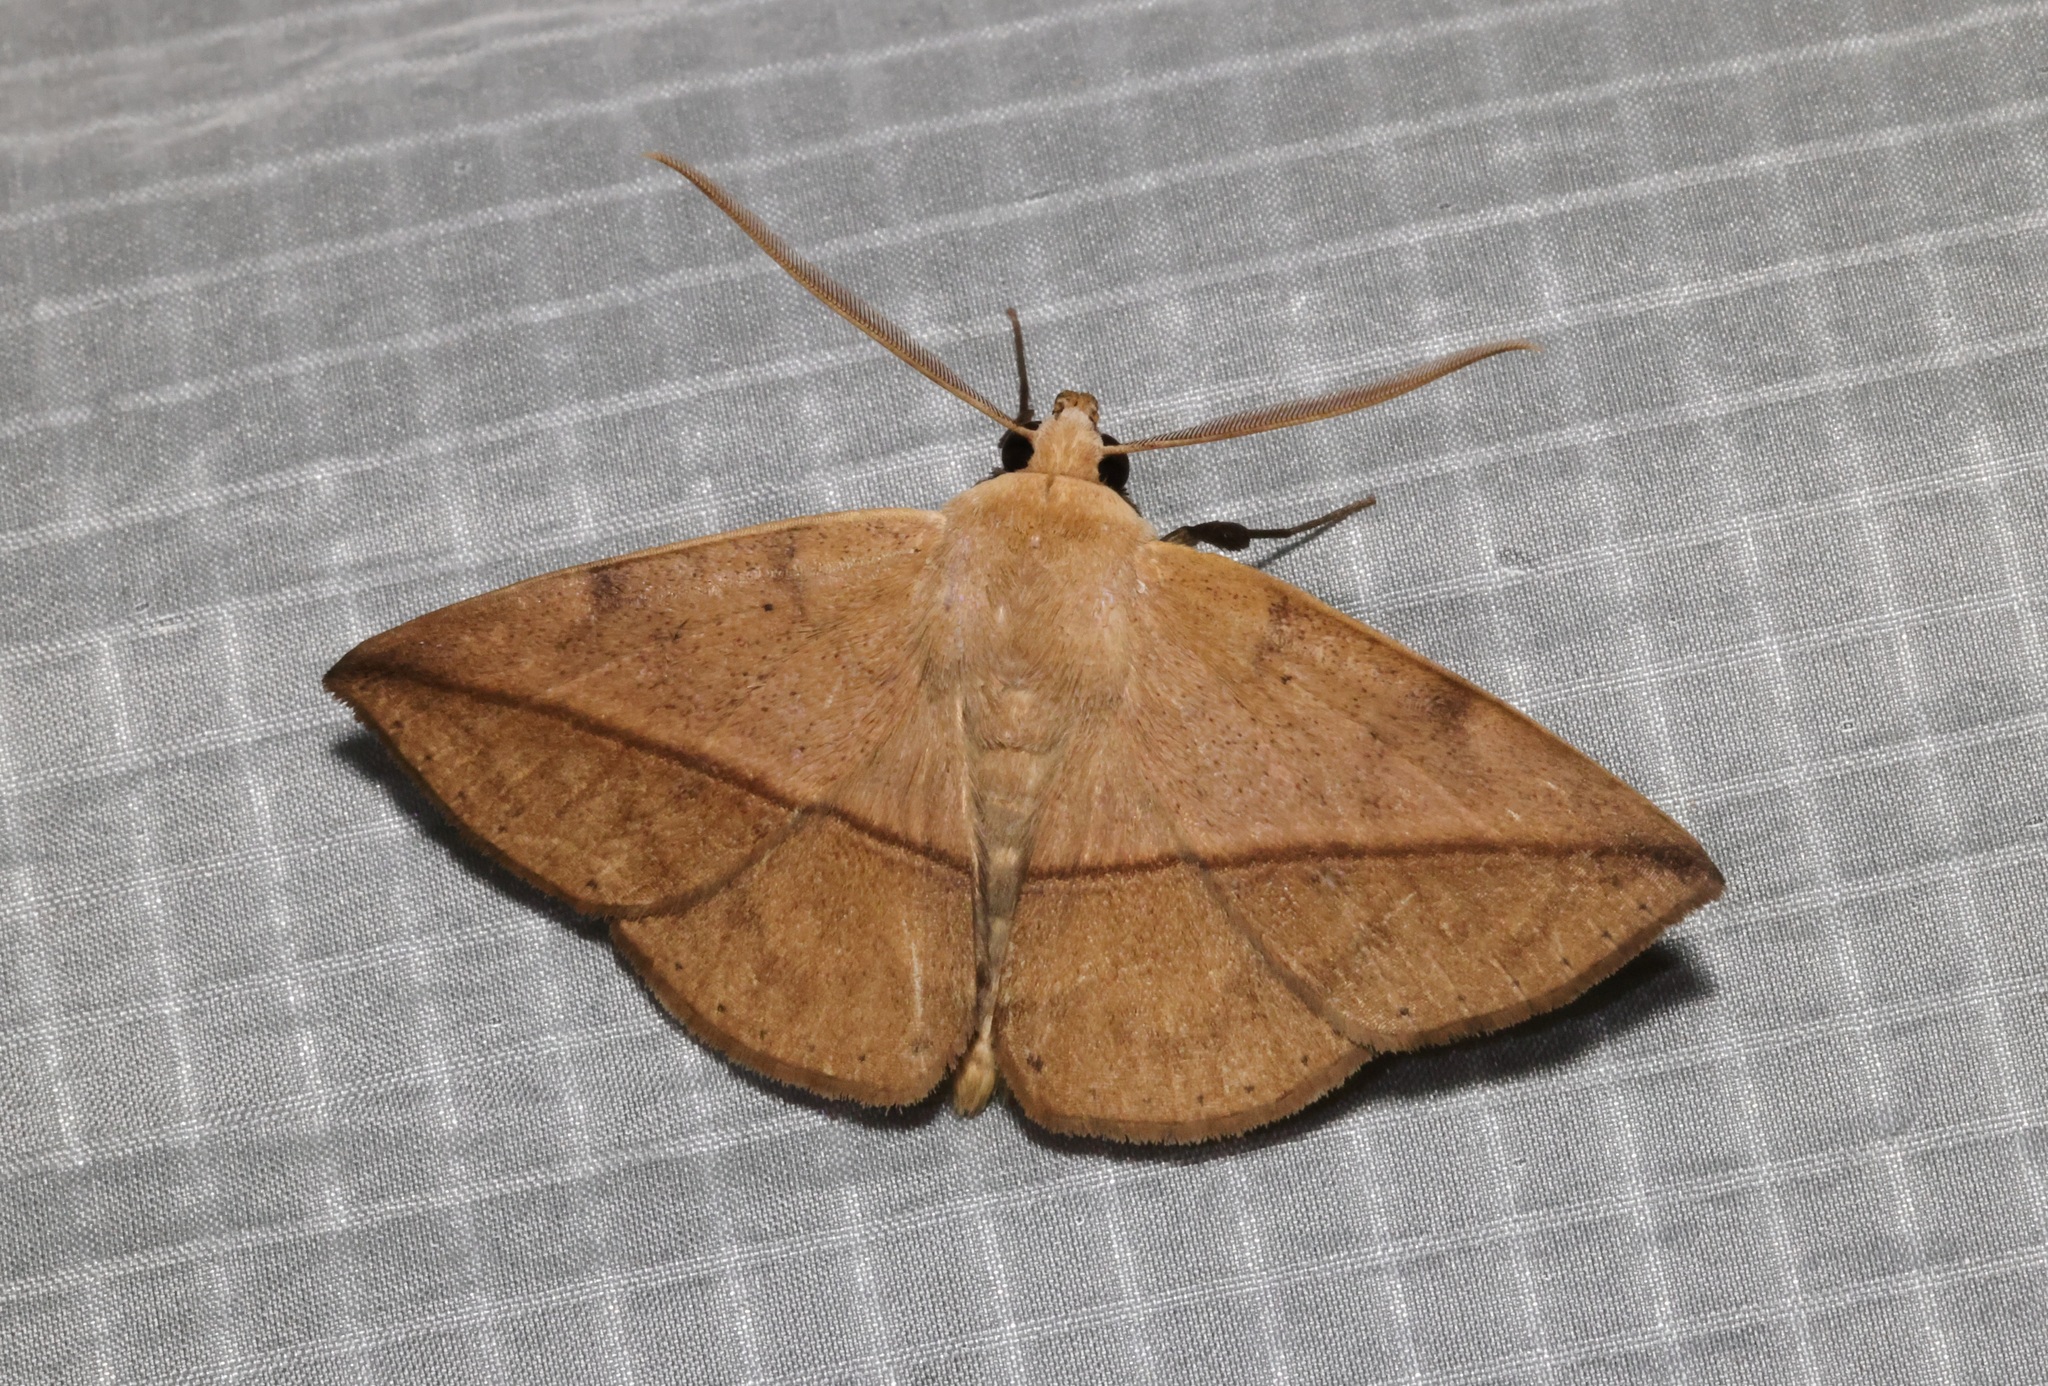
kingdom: Animalia
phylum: Arthropoda
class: Insecta
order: Lepidoptera
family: Erebidae
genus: Ugia
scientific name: Ugia purpurea
